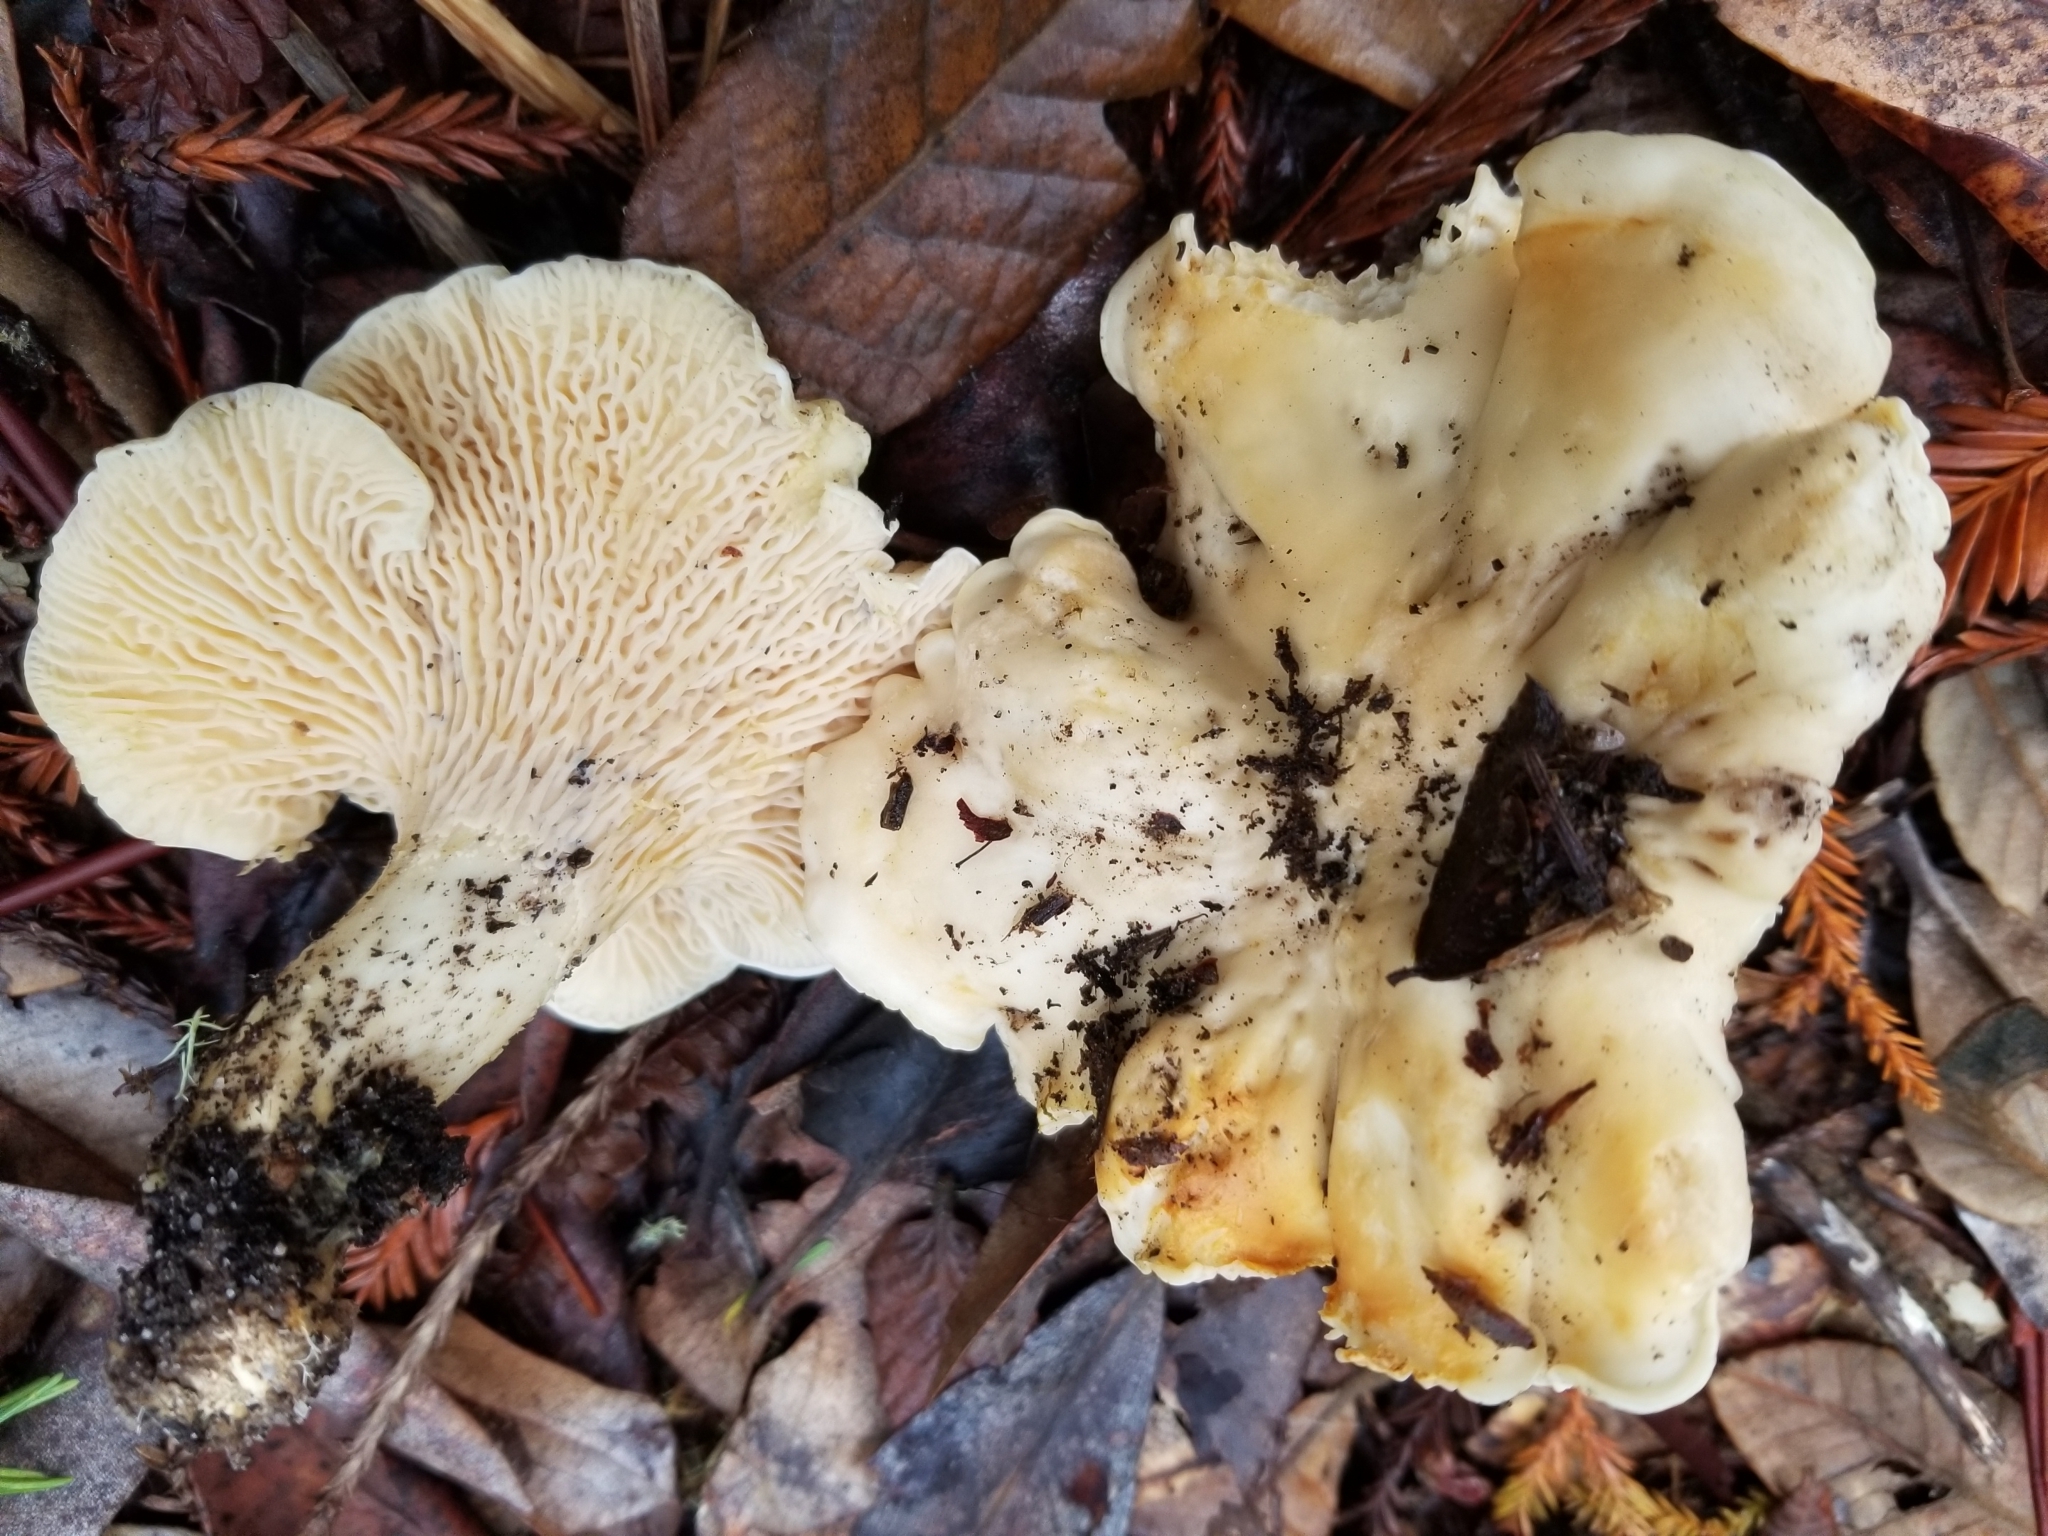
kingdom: Fungi
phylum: Basidiomycota
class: Agaricomycetes
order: Cantharellales
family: Hydnaceae
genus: Cantharellus
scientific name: Cantharellus subalbidus
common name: White chanterelle
